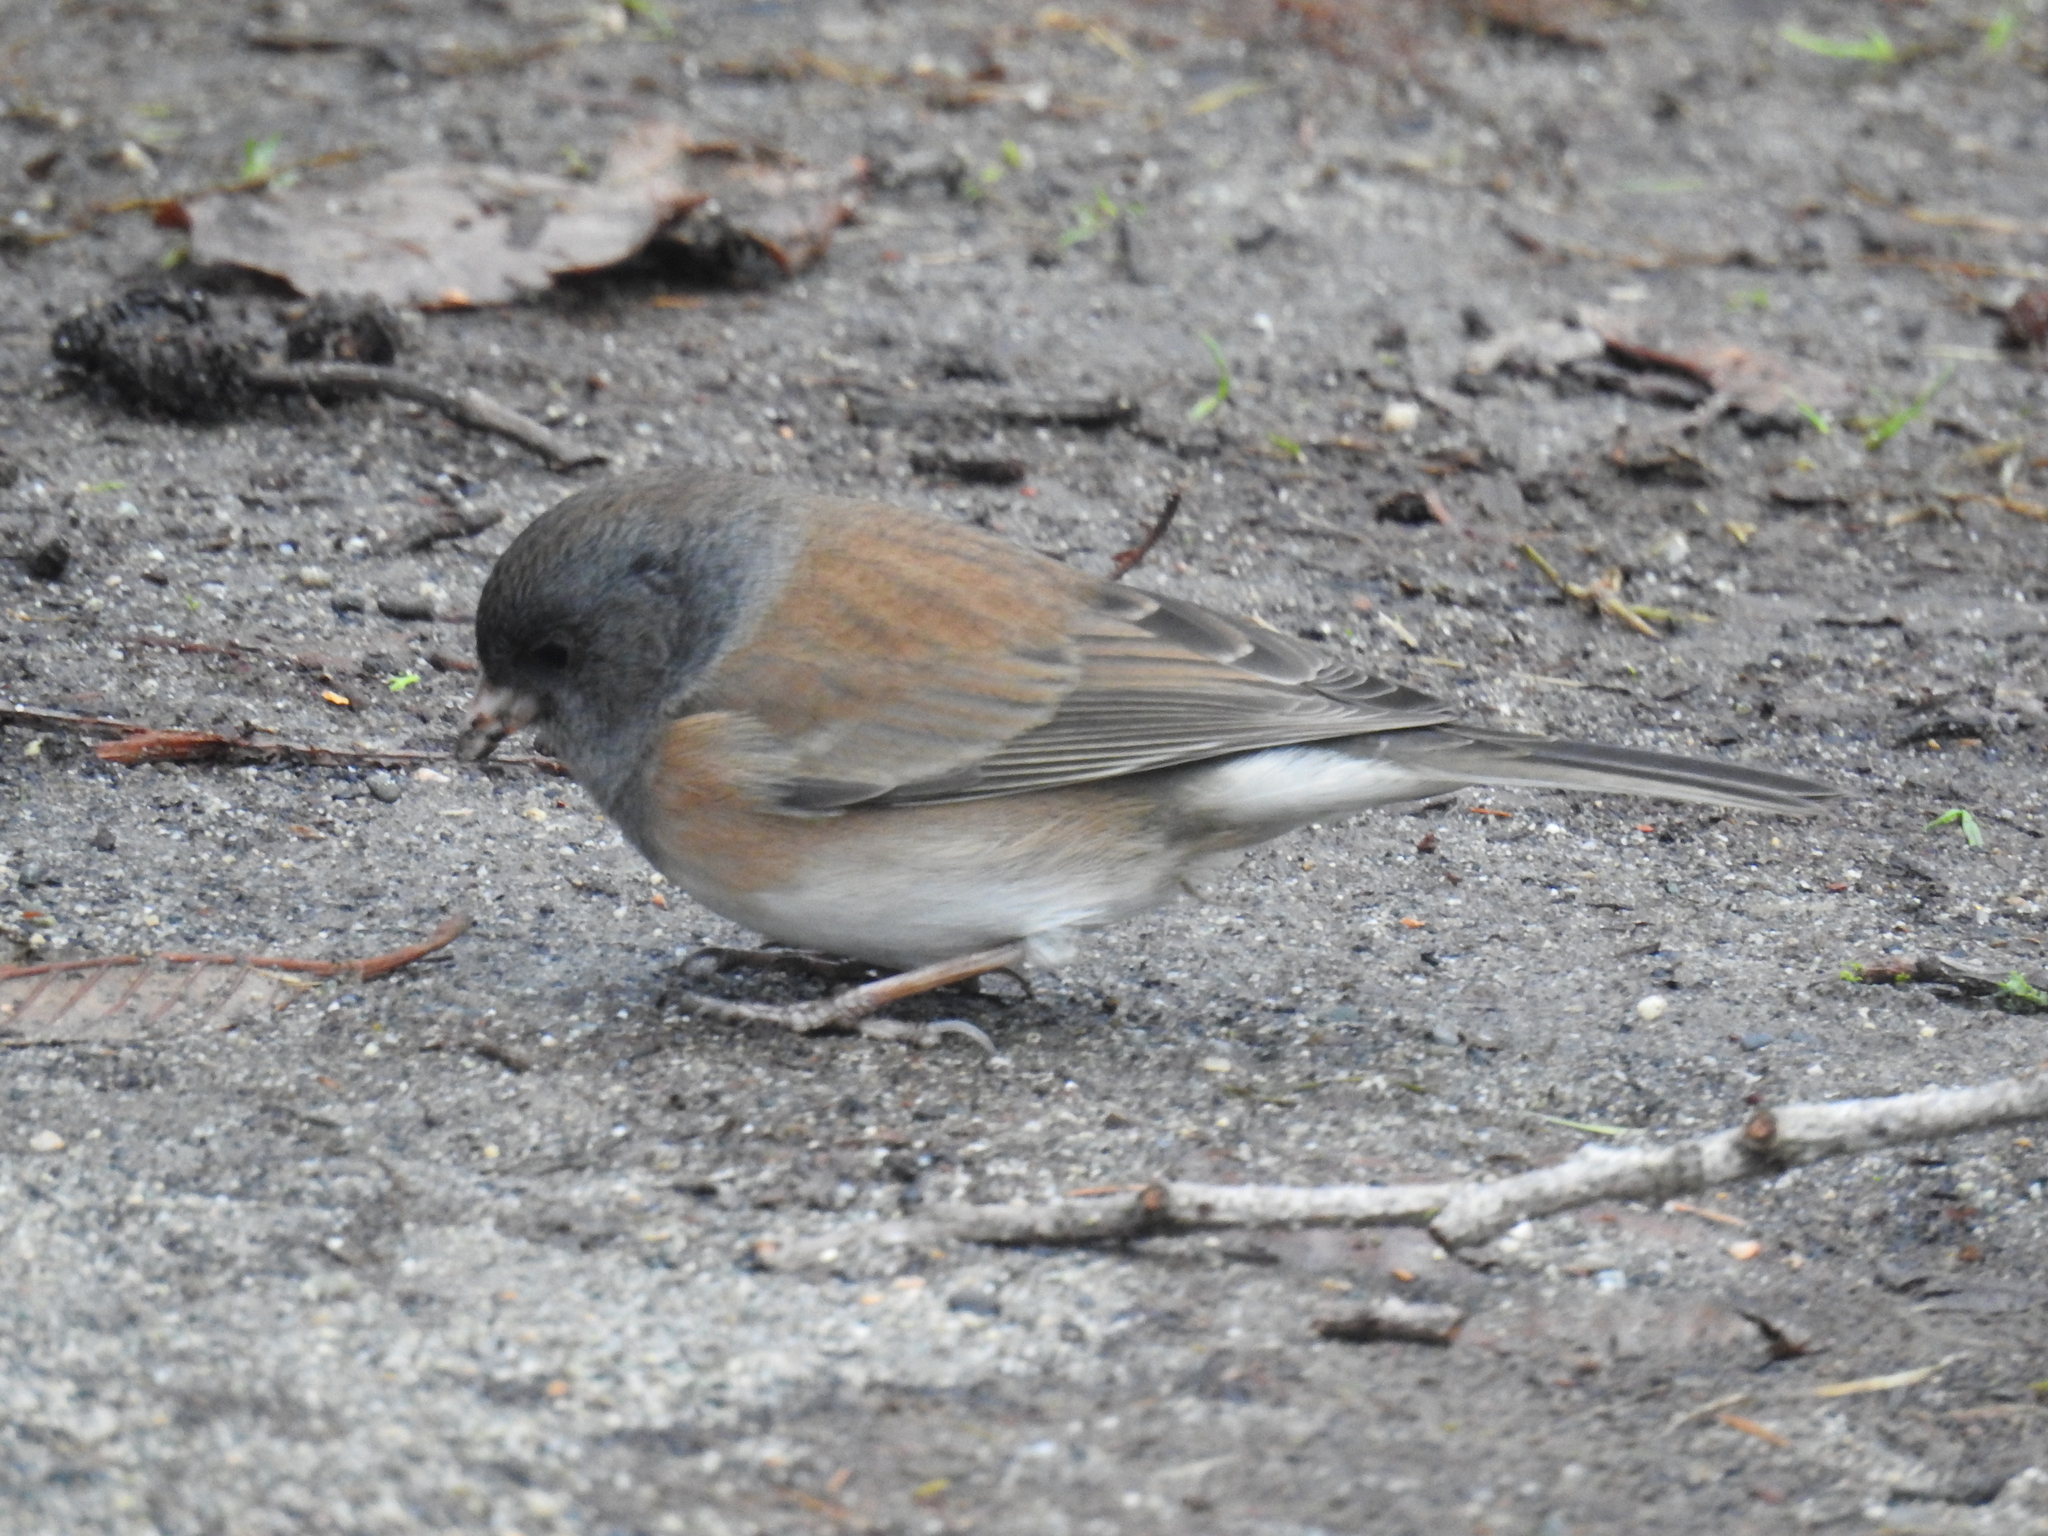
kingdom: Animalia
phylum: Chordata
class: Aves
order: Passeriformes
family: Passerellidae
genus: Junco
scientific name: Junco hyemalis
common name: Dark-eyed junco
